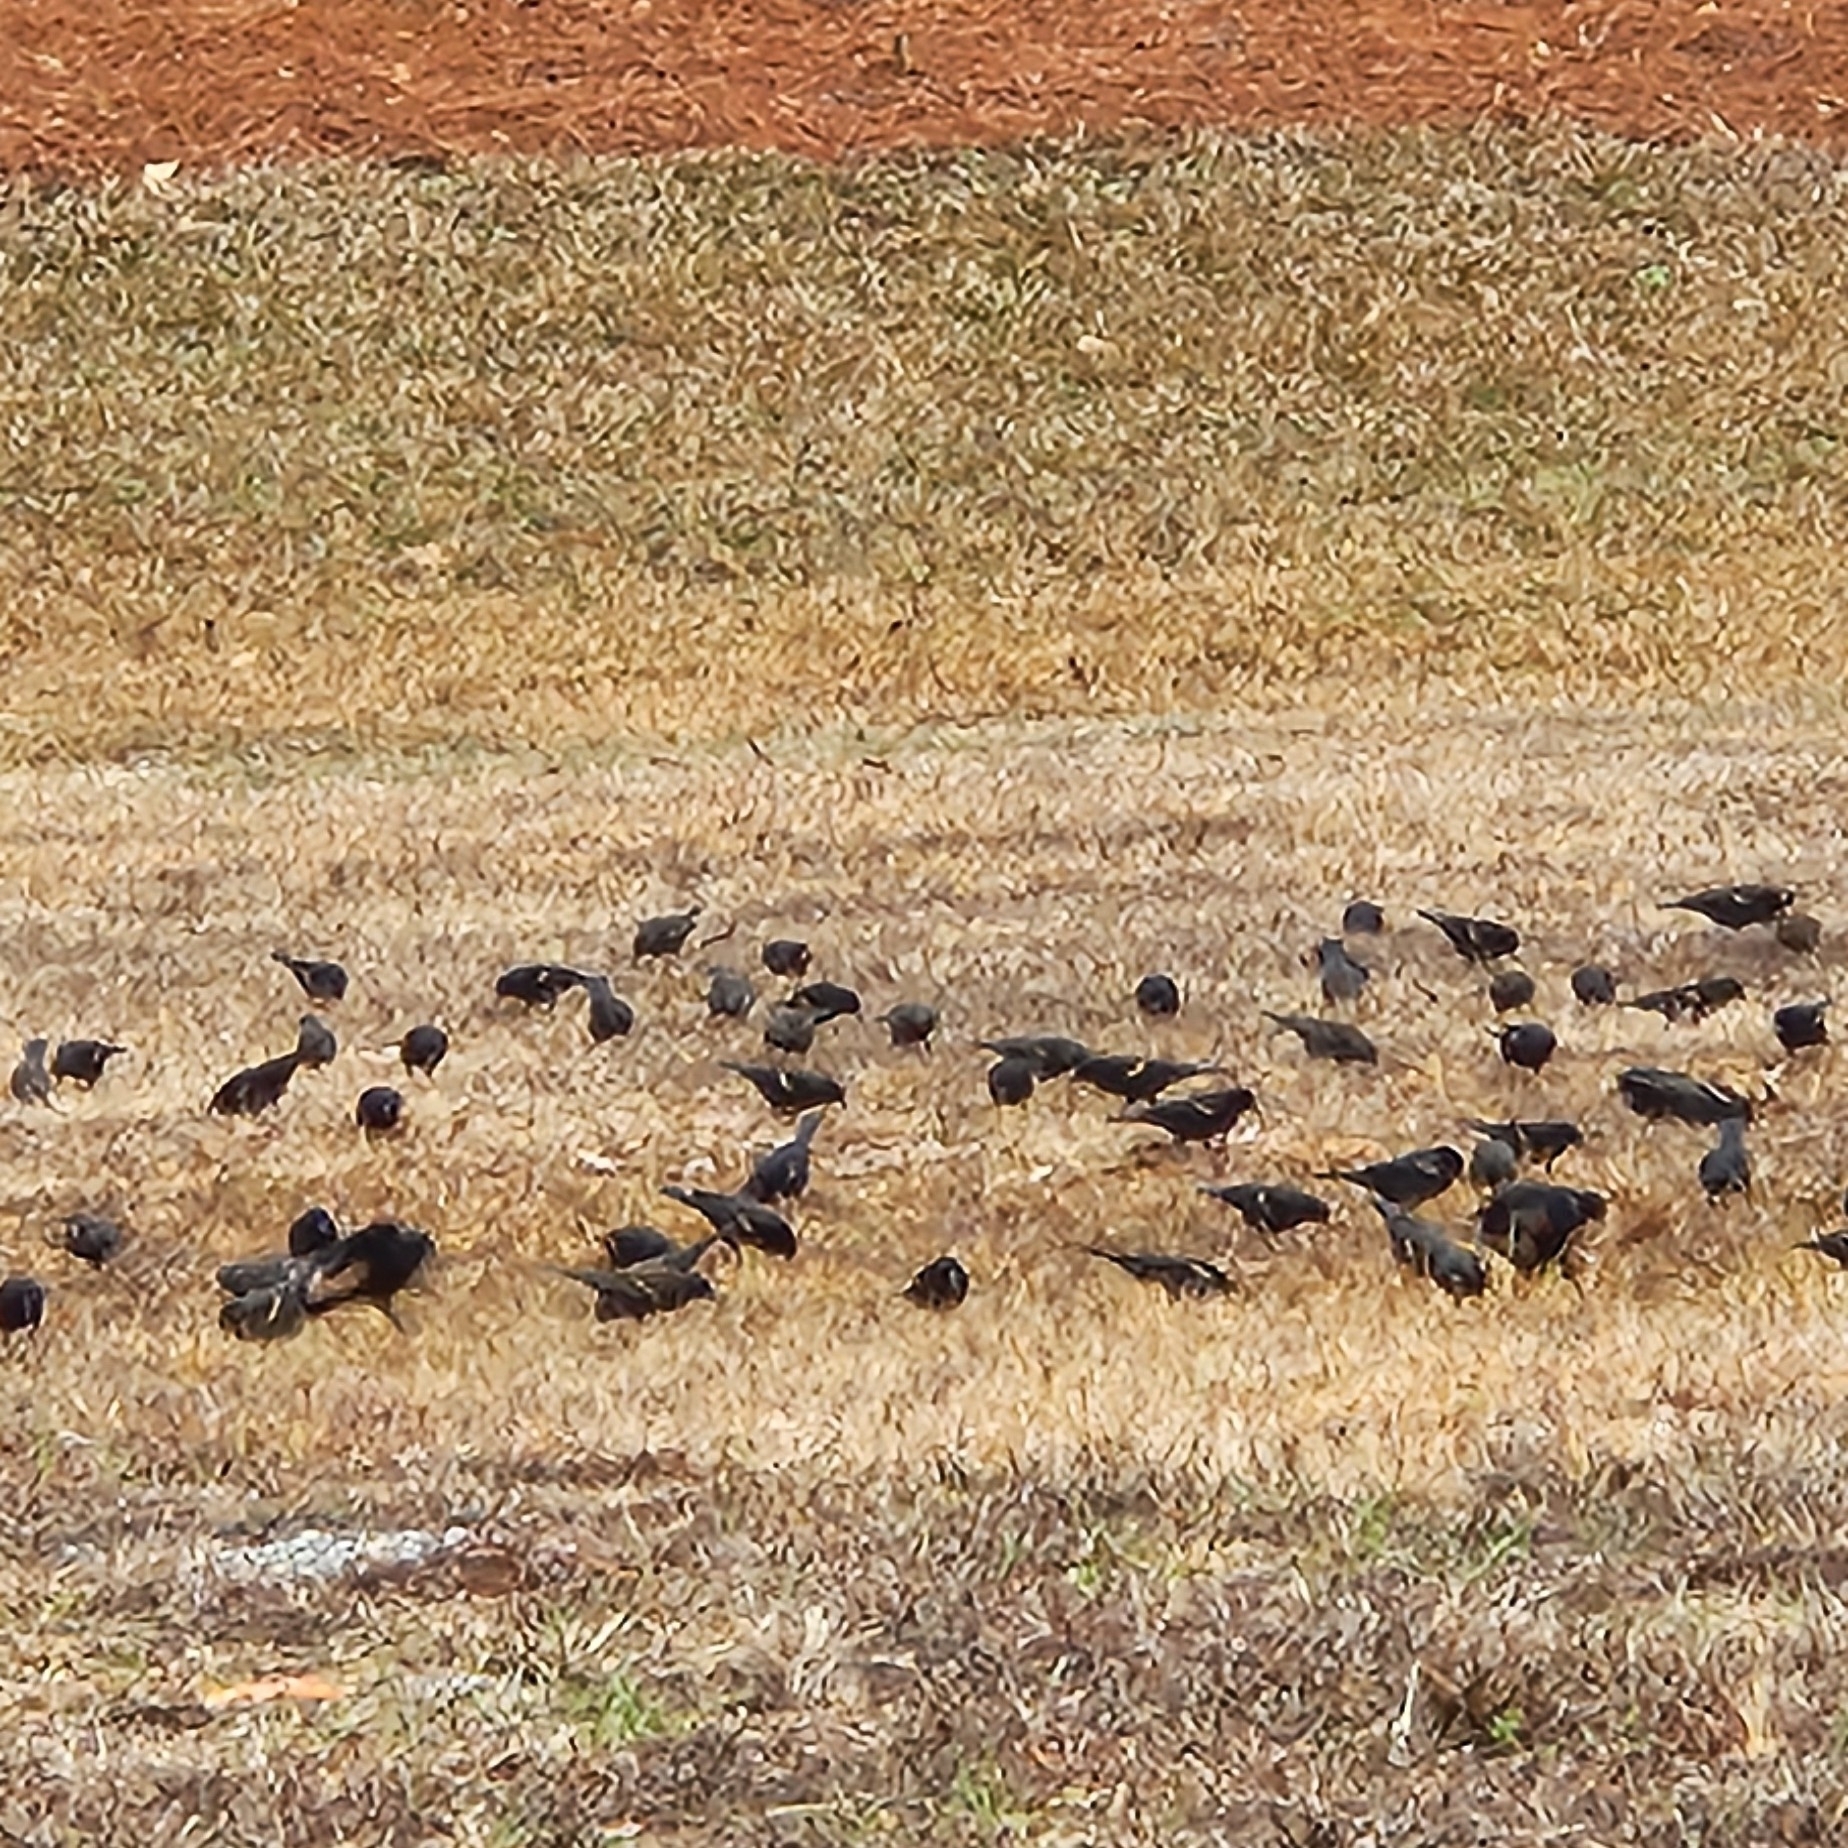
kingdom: Animalia
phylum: Chordata
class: Aves
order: Passeriformes
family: Icteridae
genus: Agelaius
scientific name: Agelaius phoeniceus
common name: Red-winged blackbird
